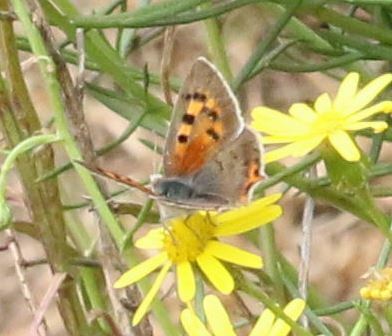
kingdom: Animalia
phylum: Arthropoda
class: Insecta
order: Lepidoptera
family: Lycaenidae
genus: Lycaena
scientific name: Lycaena phlaeas
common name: Small copper
